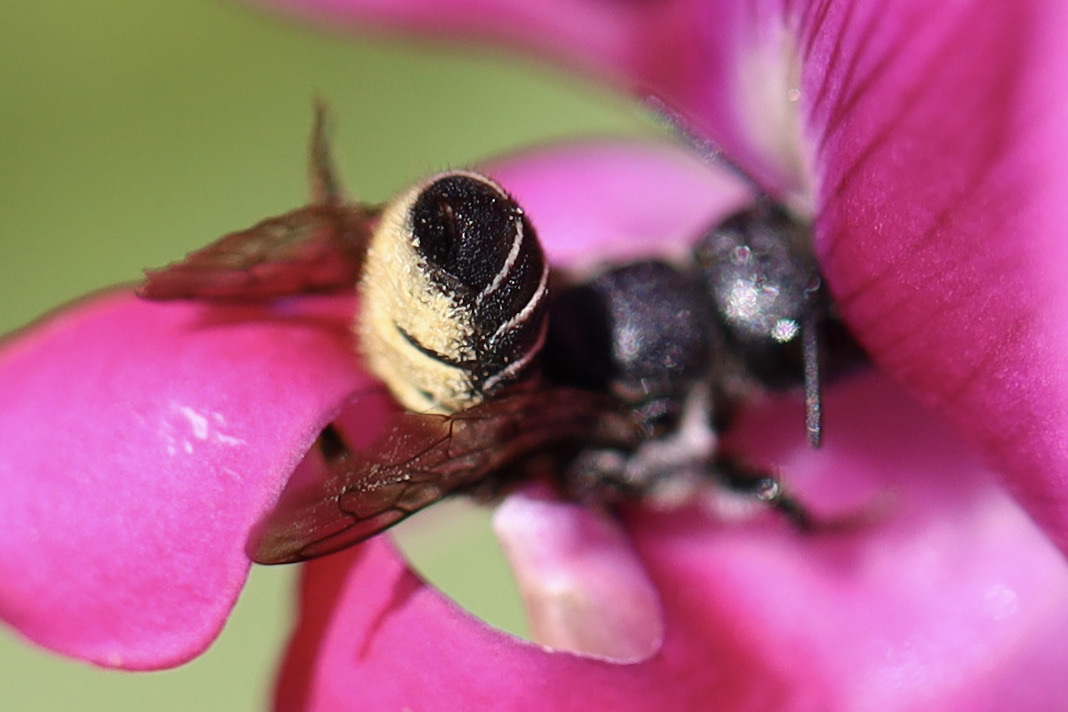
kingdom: Animalia
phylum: Arthropoda
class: Insecta
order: Hymenoptera
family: Megachilidae
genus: Megachile
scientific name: Megachile angelarum
